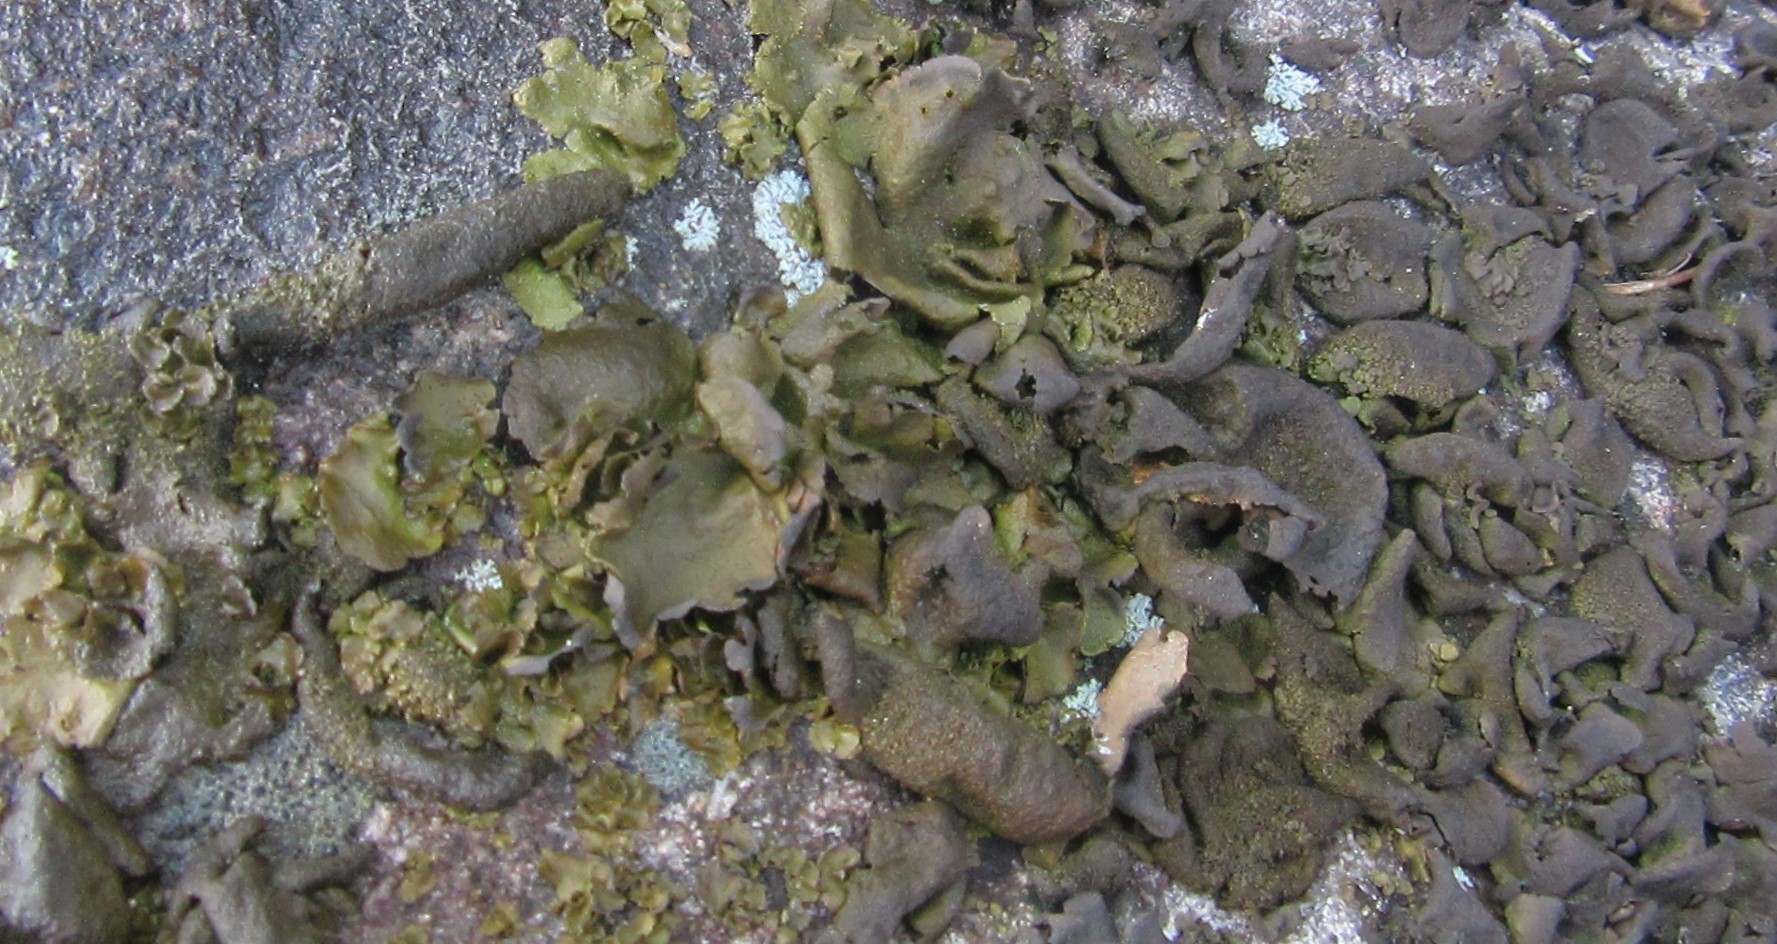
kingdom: Fungi
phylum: Ascomycota
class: Eurotiomycetes
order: Verrucariales
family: Verrucariaceae
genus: Dermatocarpon
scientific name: Dermatocarpon luridum
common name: Brook stippleback lichen
